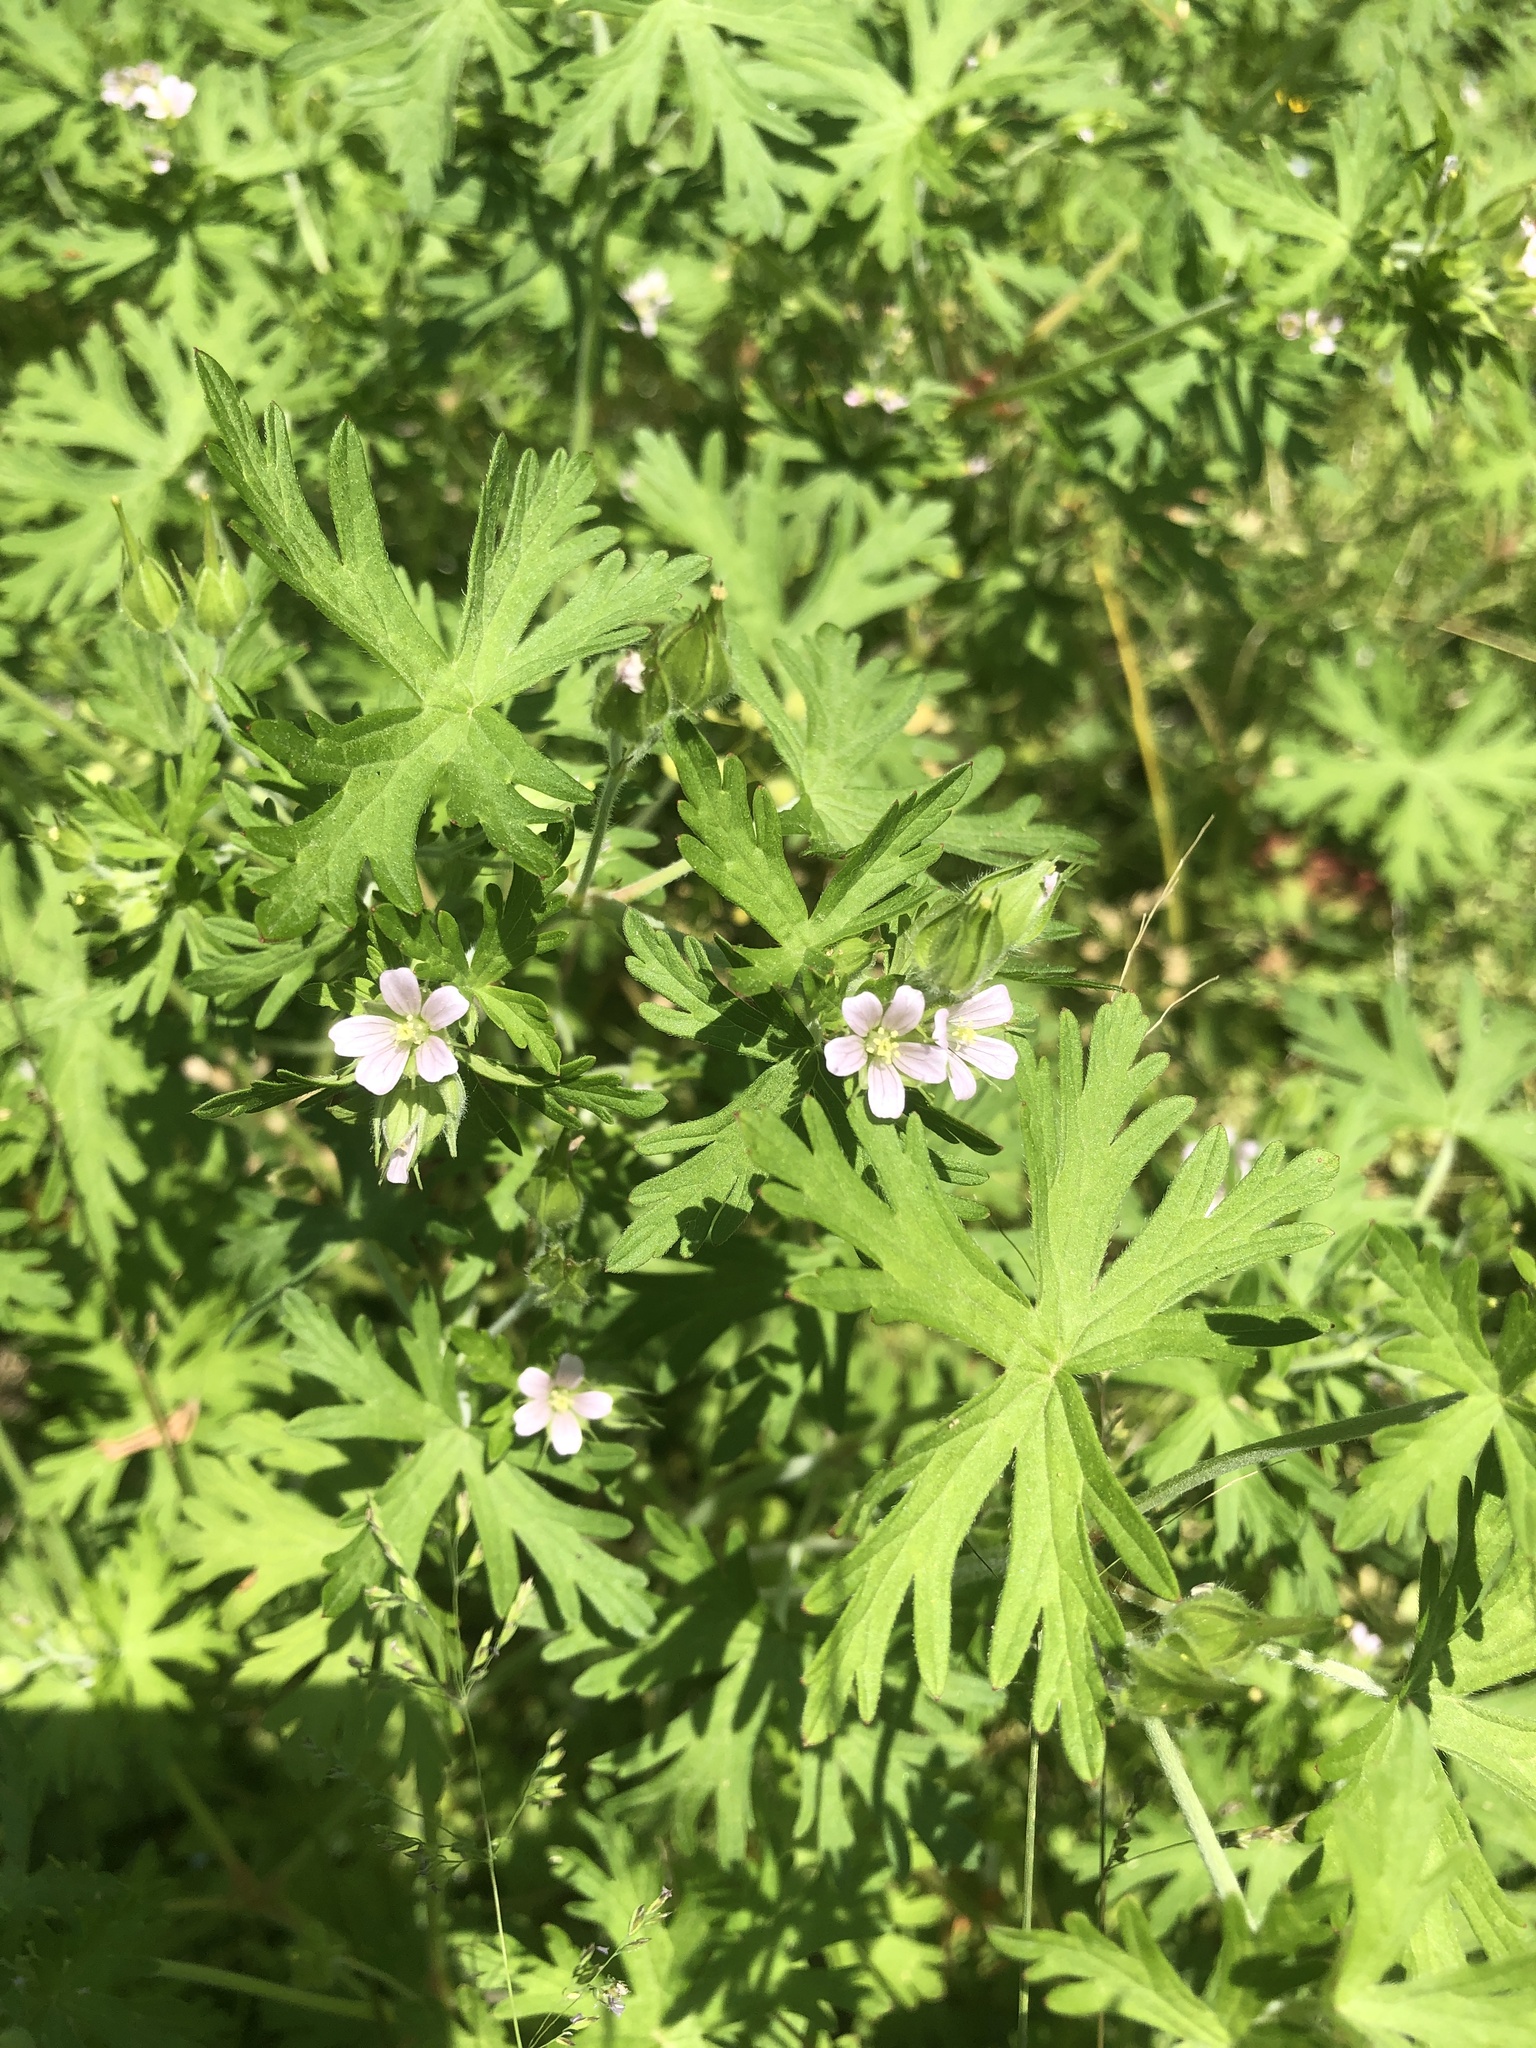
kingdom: Plantae
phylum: Tracheophyta
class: Magnoliopsida
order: Geraniales
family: Geraniaceae
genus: Geranium
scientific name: Geranium carolinianum
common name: Carolina crane's-bill
